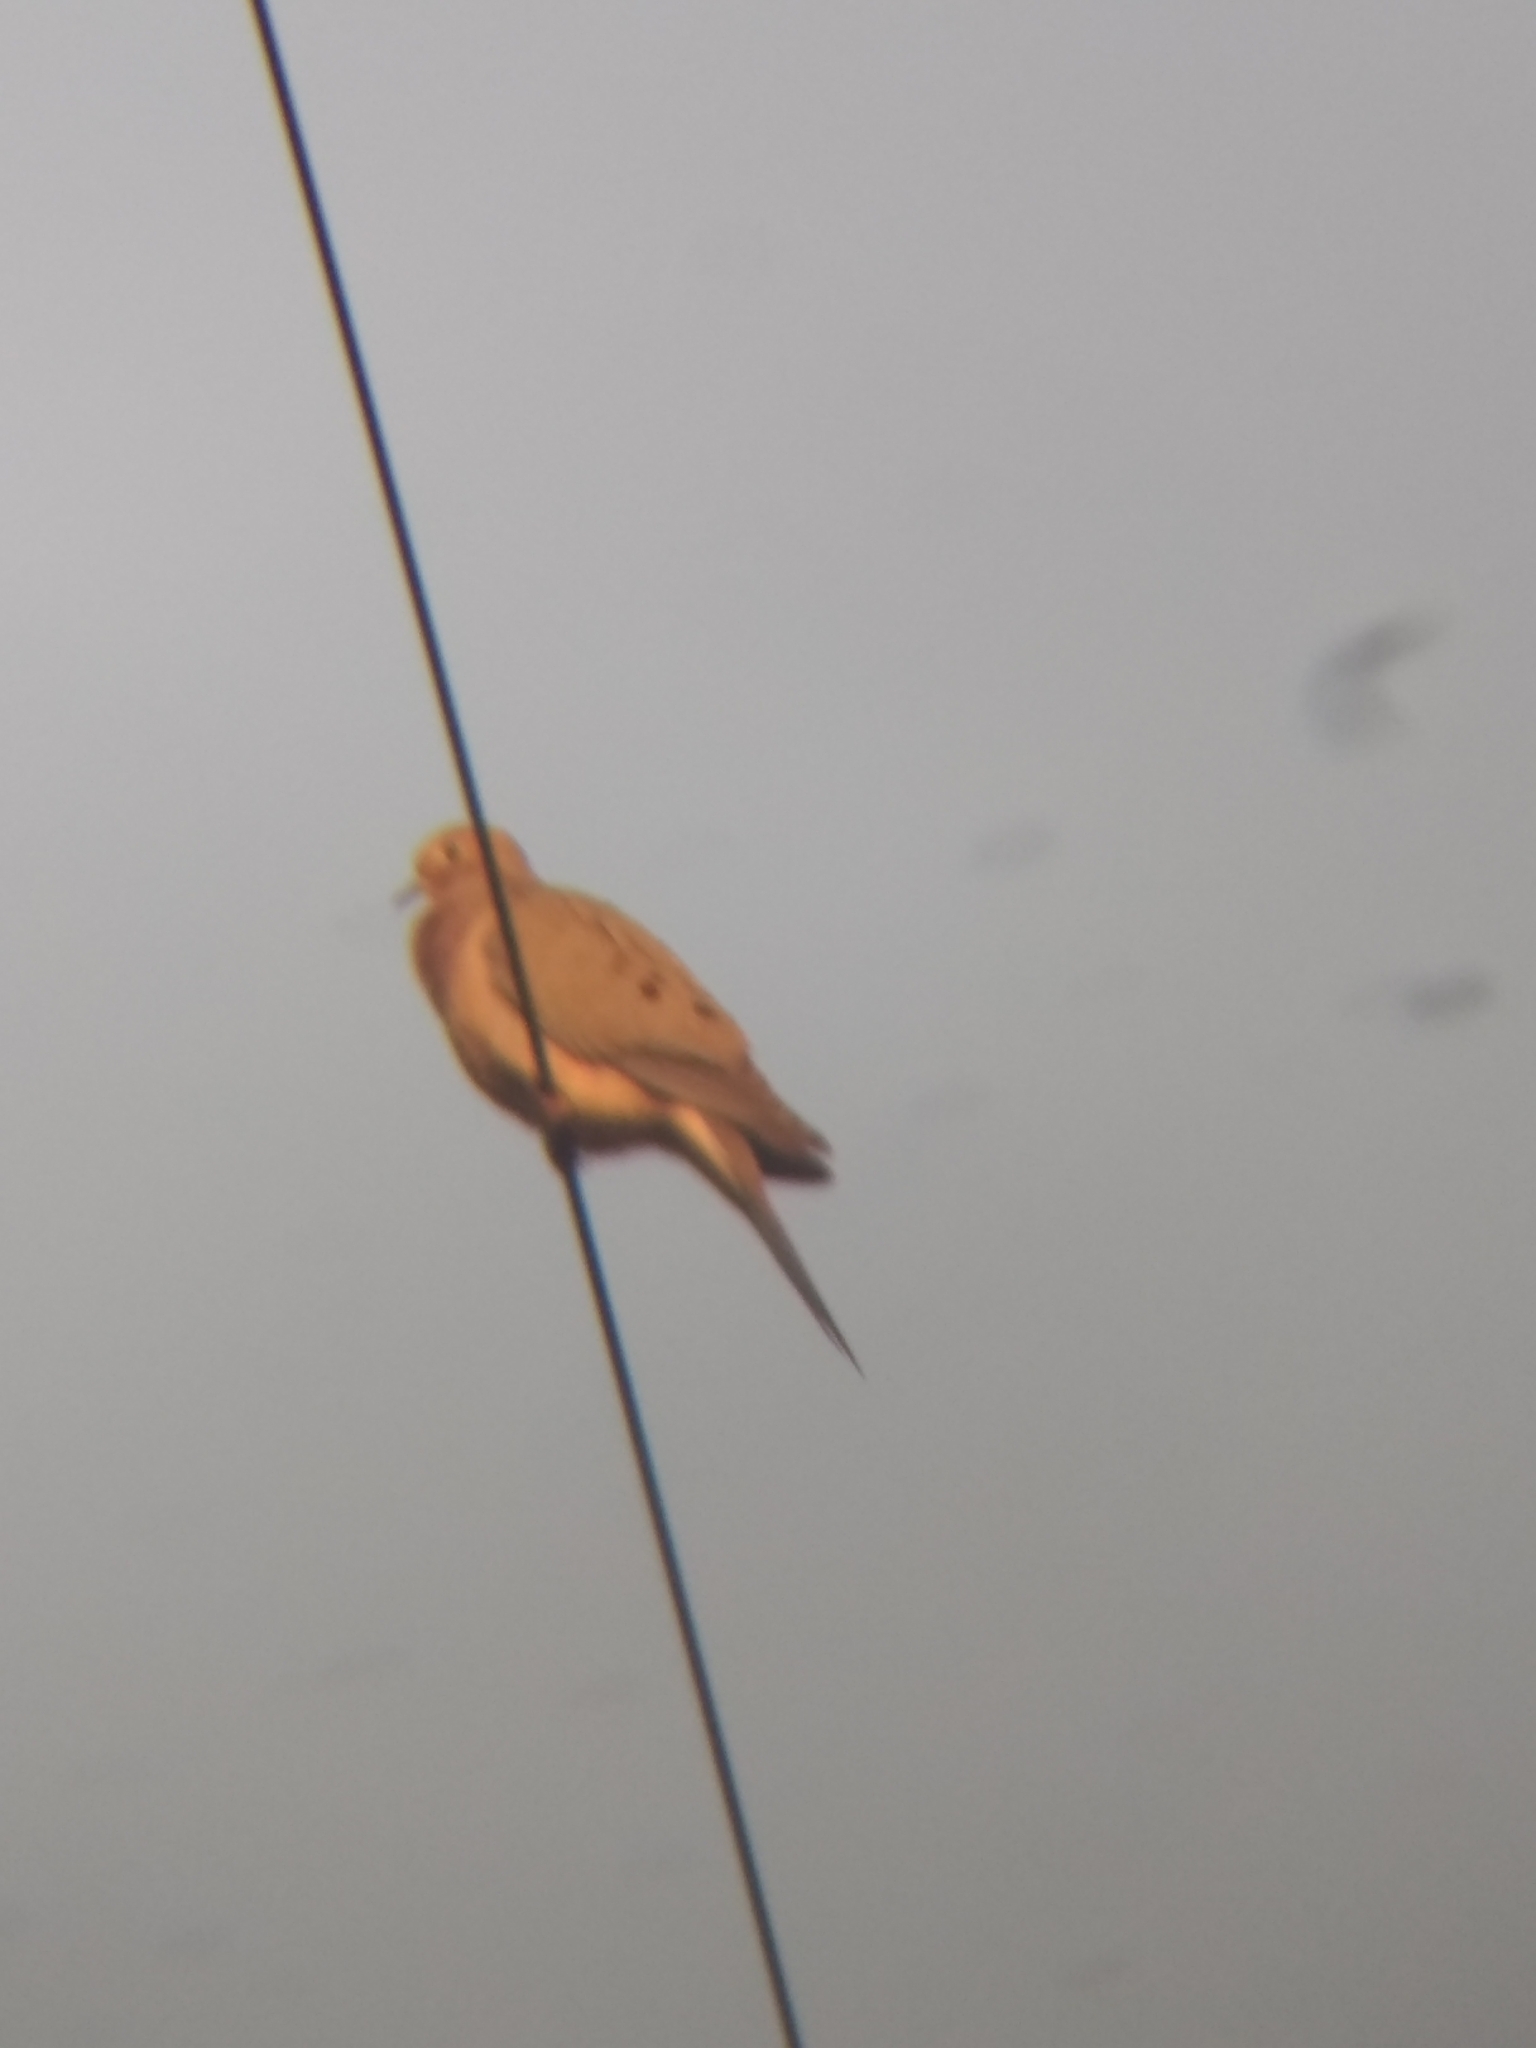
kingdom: Animalia
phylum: Chordata
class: Aves
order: Columbiformes
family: Columbidae
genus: Zenaida
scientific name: Zenaida macroura
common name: Mourning dove
